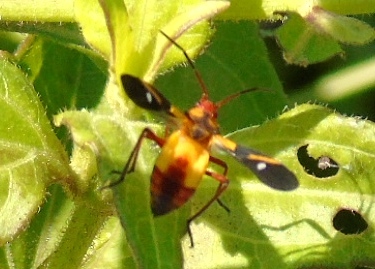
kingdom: Animalia
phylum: Arthropoda
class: Insecta
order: Hemiptera
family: Lygaeidae
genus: Oncopeltus
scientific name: Oncopeltus sexmaculatus
